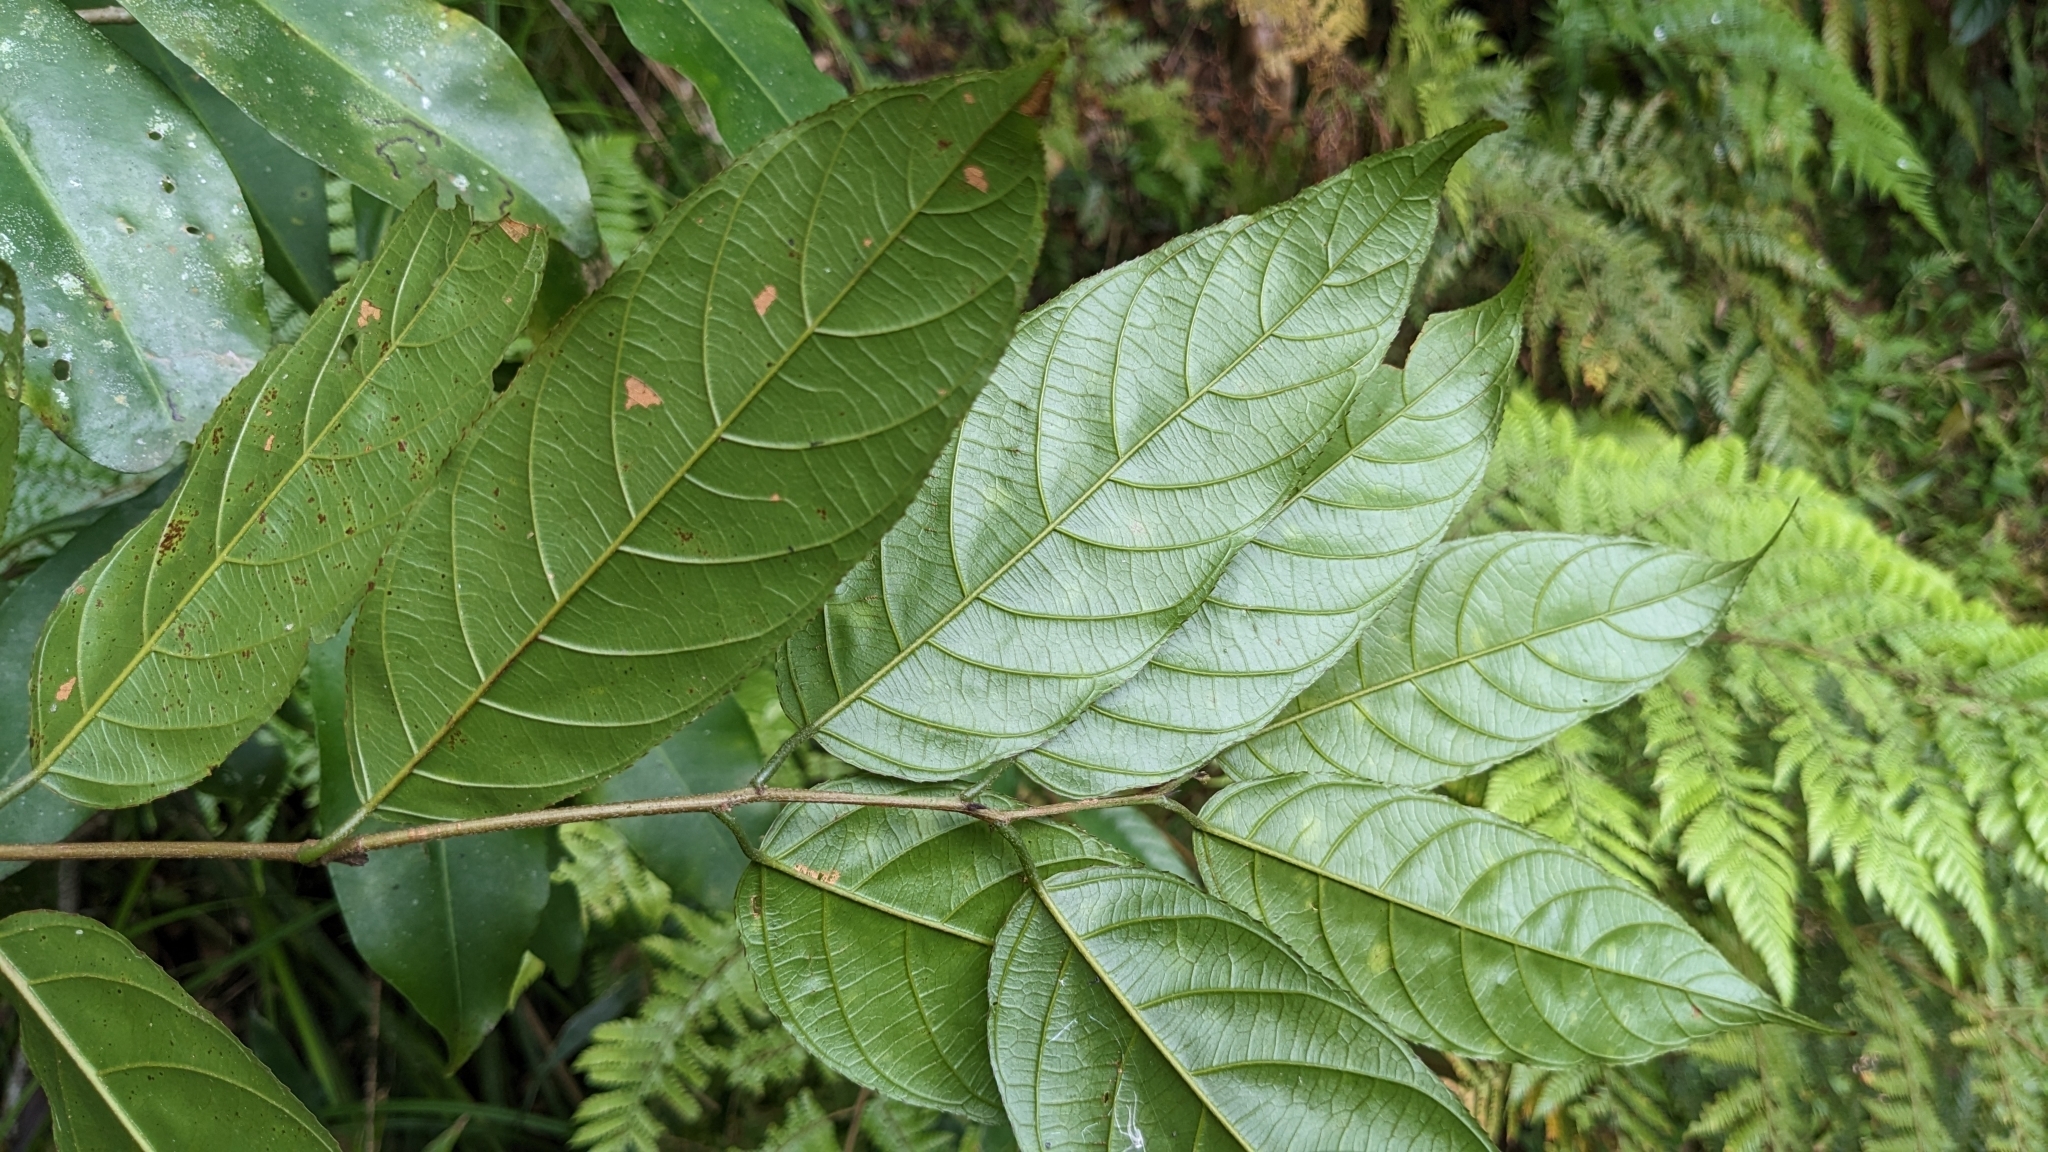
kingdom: Plantae
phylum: Tracheophyta
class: Magnoliopsida
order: Rosales
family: Rhamnaceae
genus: Sageretia
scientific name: Sageretia randaiensis
